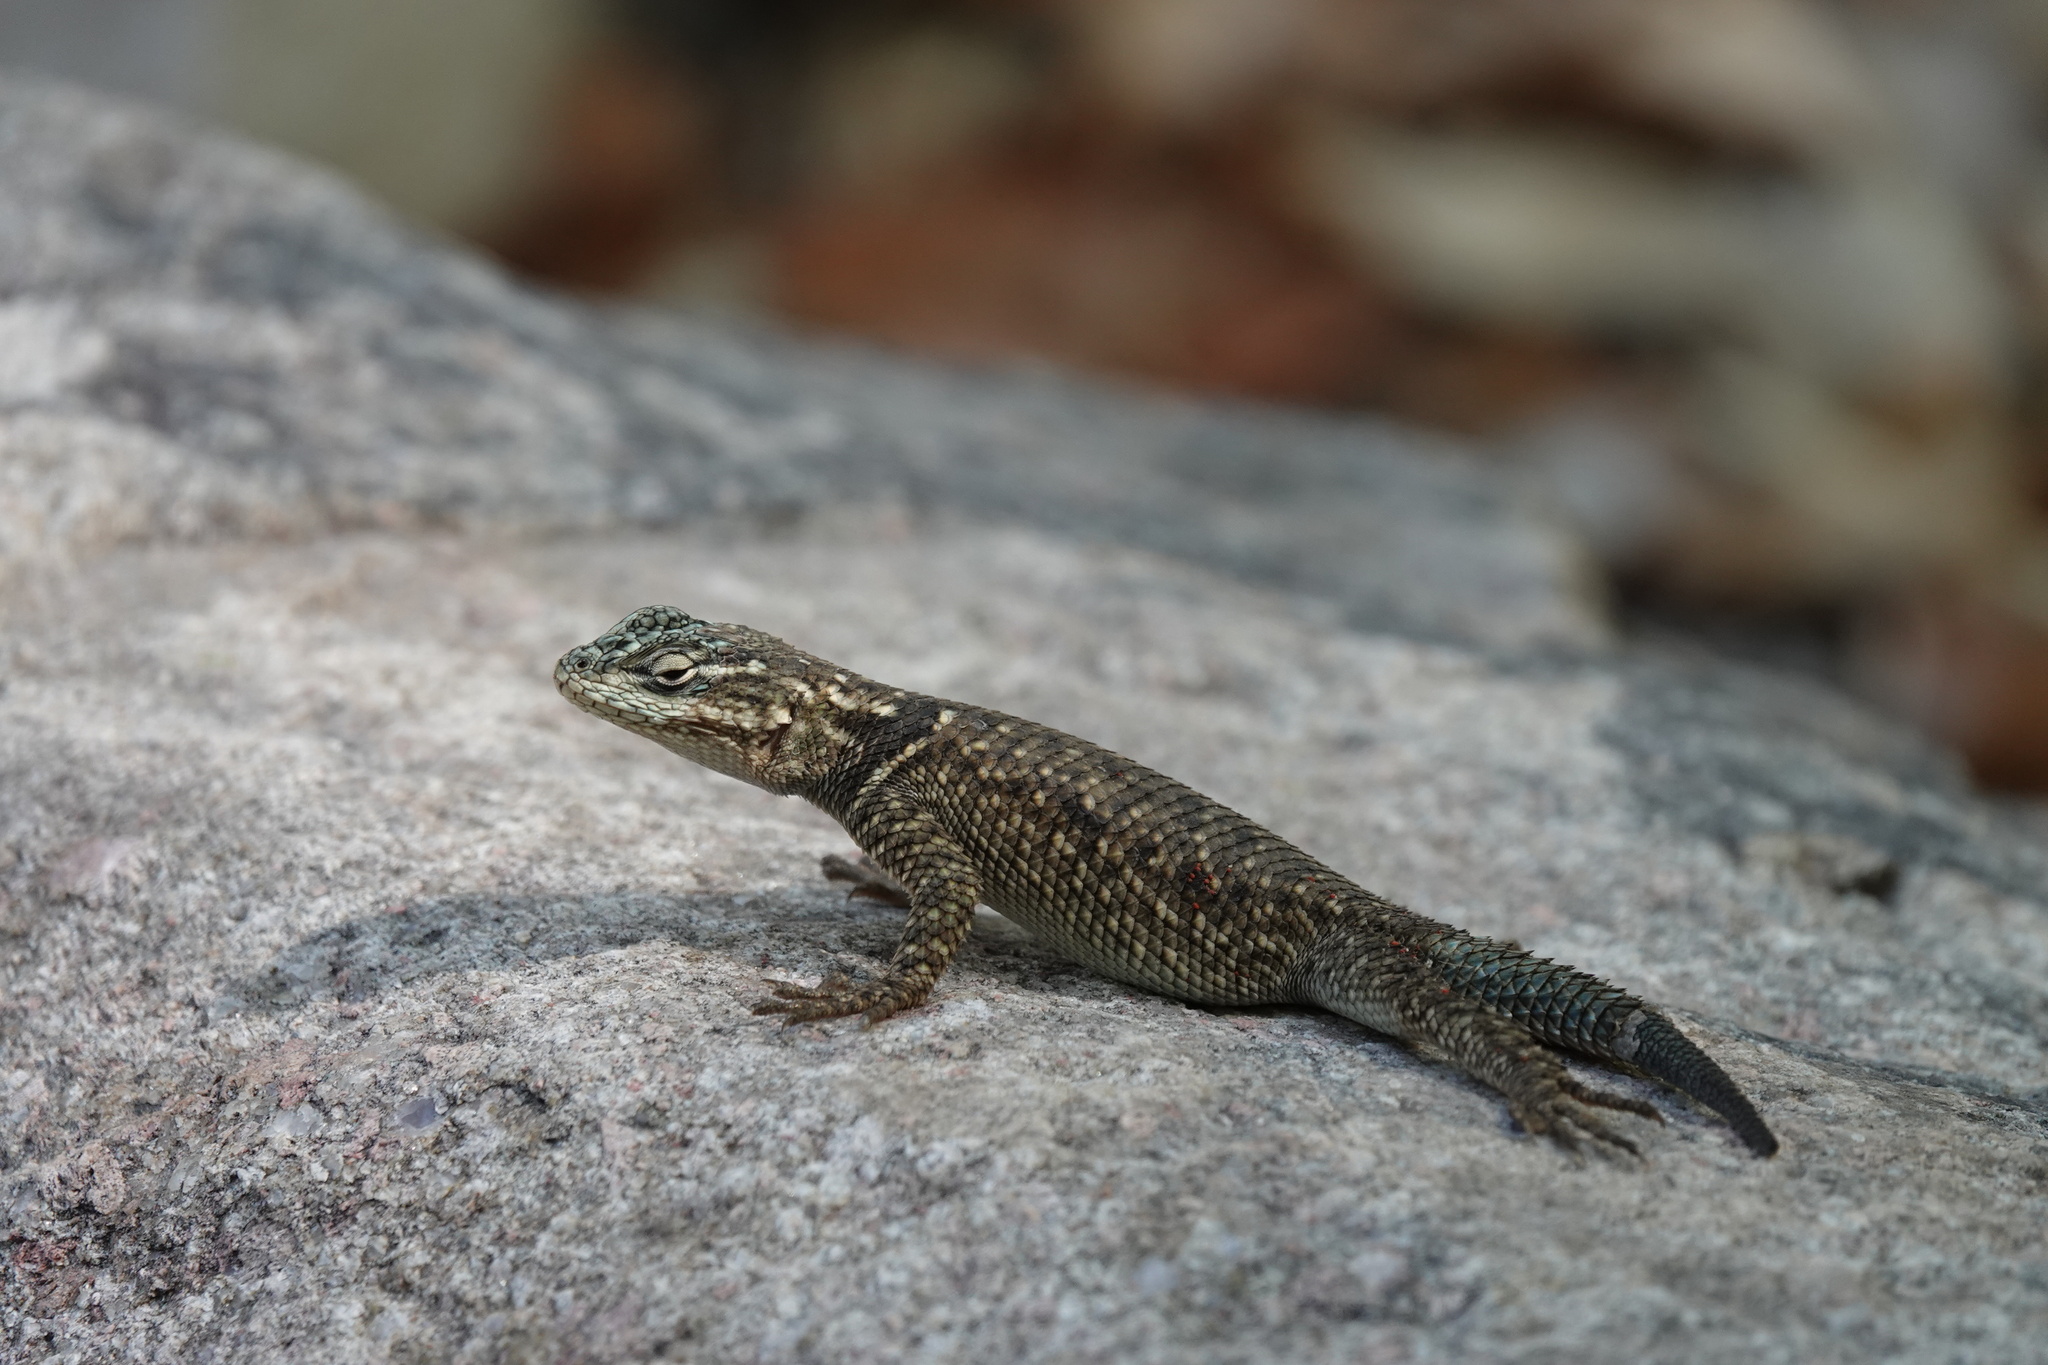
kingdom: Animalia
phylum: Chordata
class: Squamata
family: Phrynosomatidae
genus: Sceloporus
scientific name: Sceloporus jarrovii
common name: Yarrow's spiny lizard
